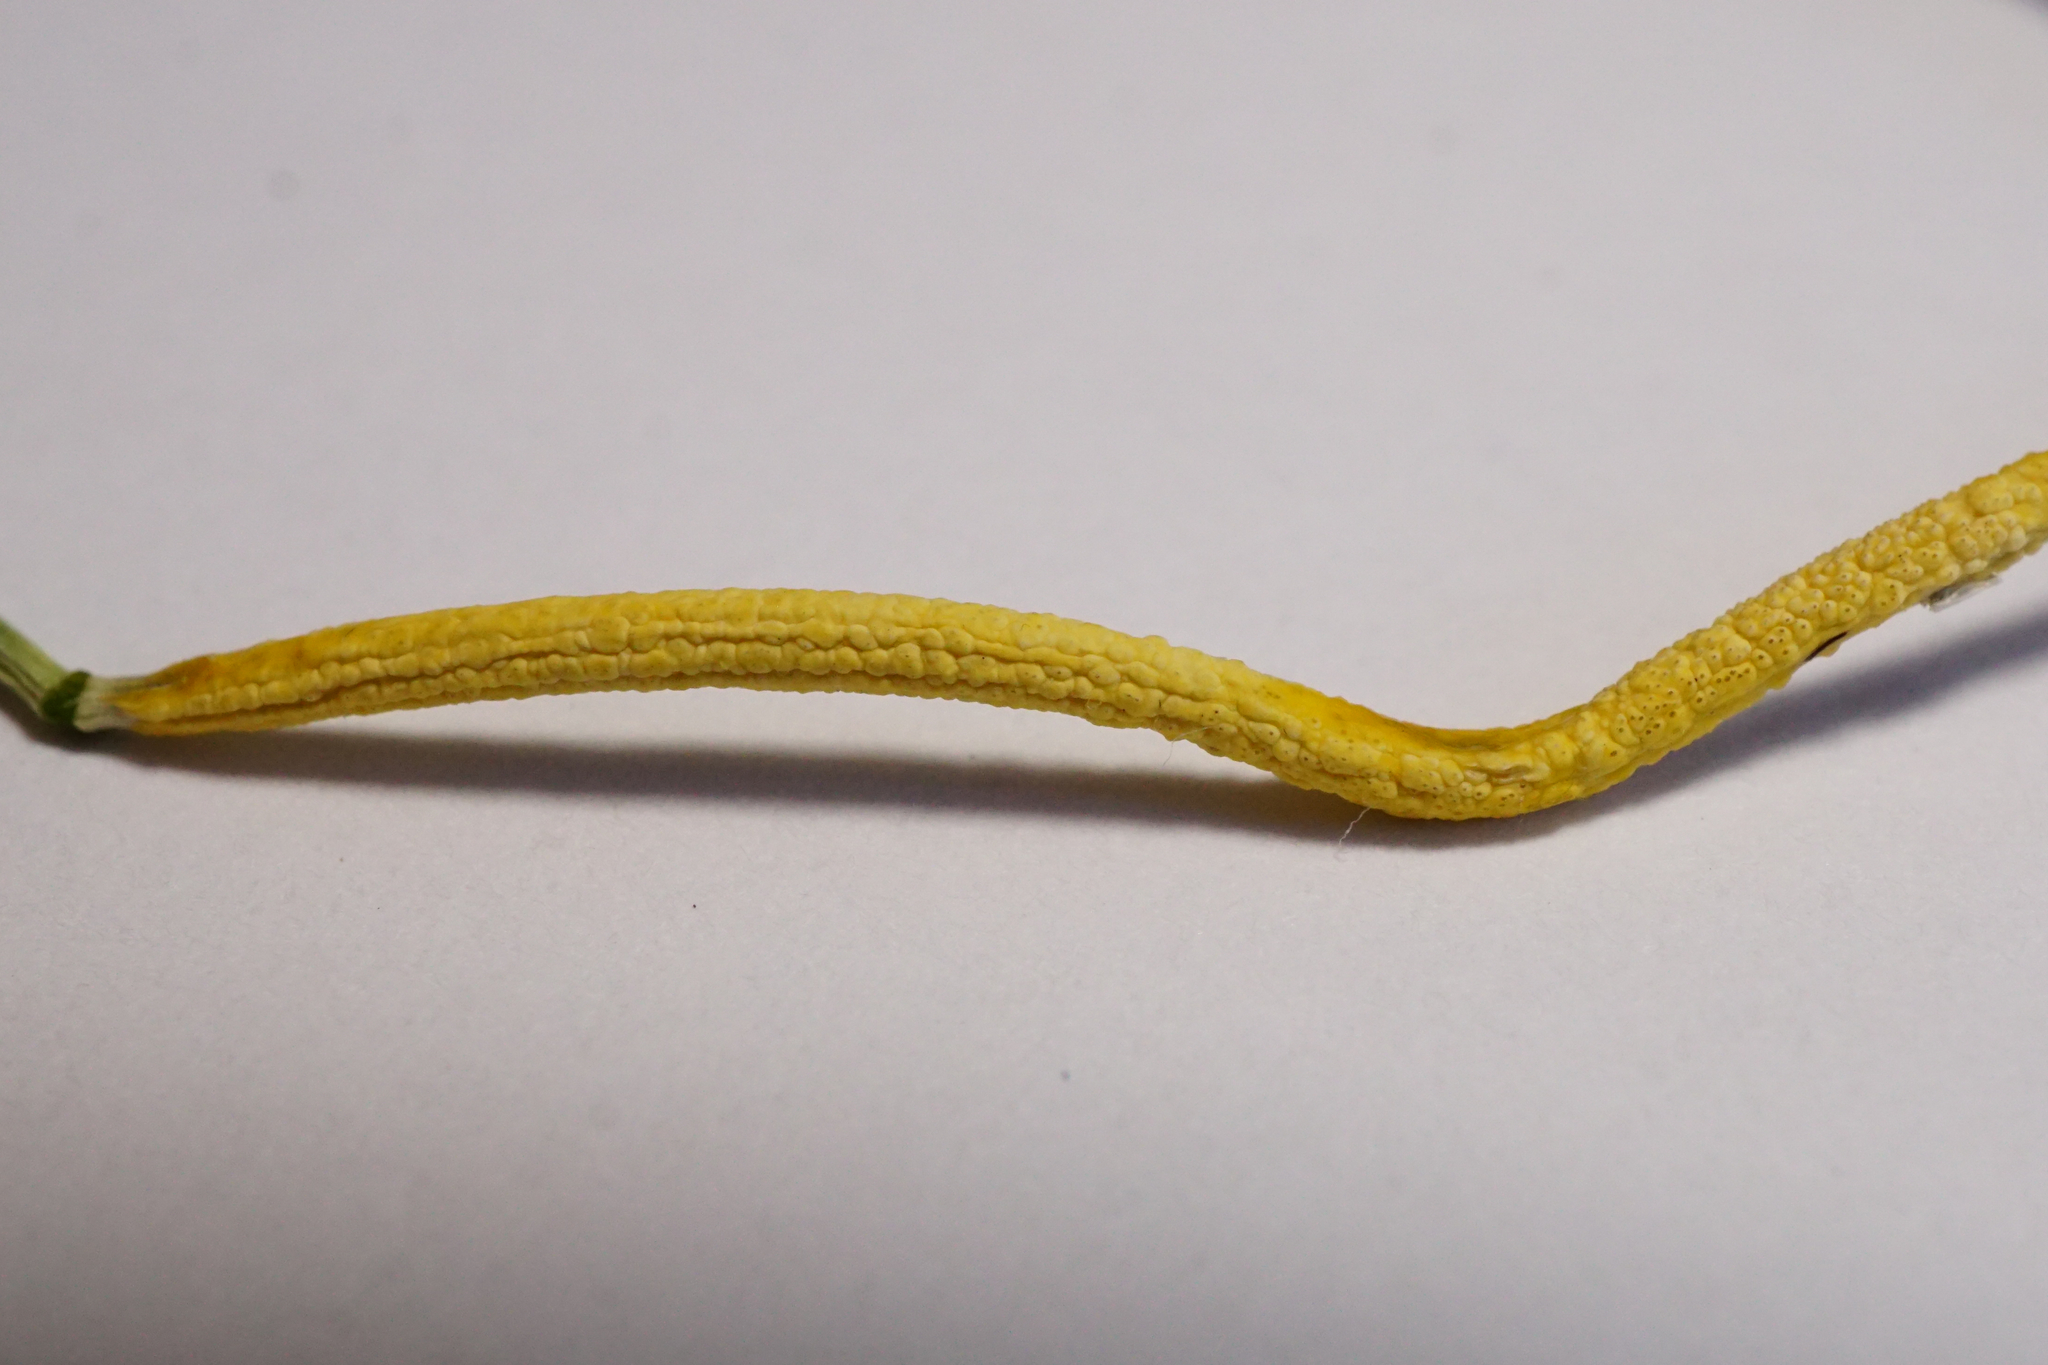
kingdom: Fungi
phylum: Ascomycota
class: Sordariomycetes
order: Hypocreales
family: Clavicipitaceae
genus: Epichloe
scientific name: Epichloe
